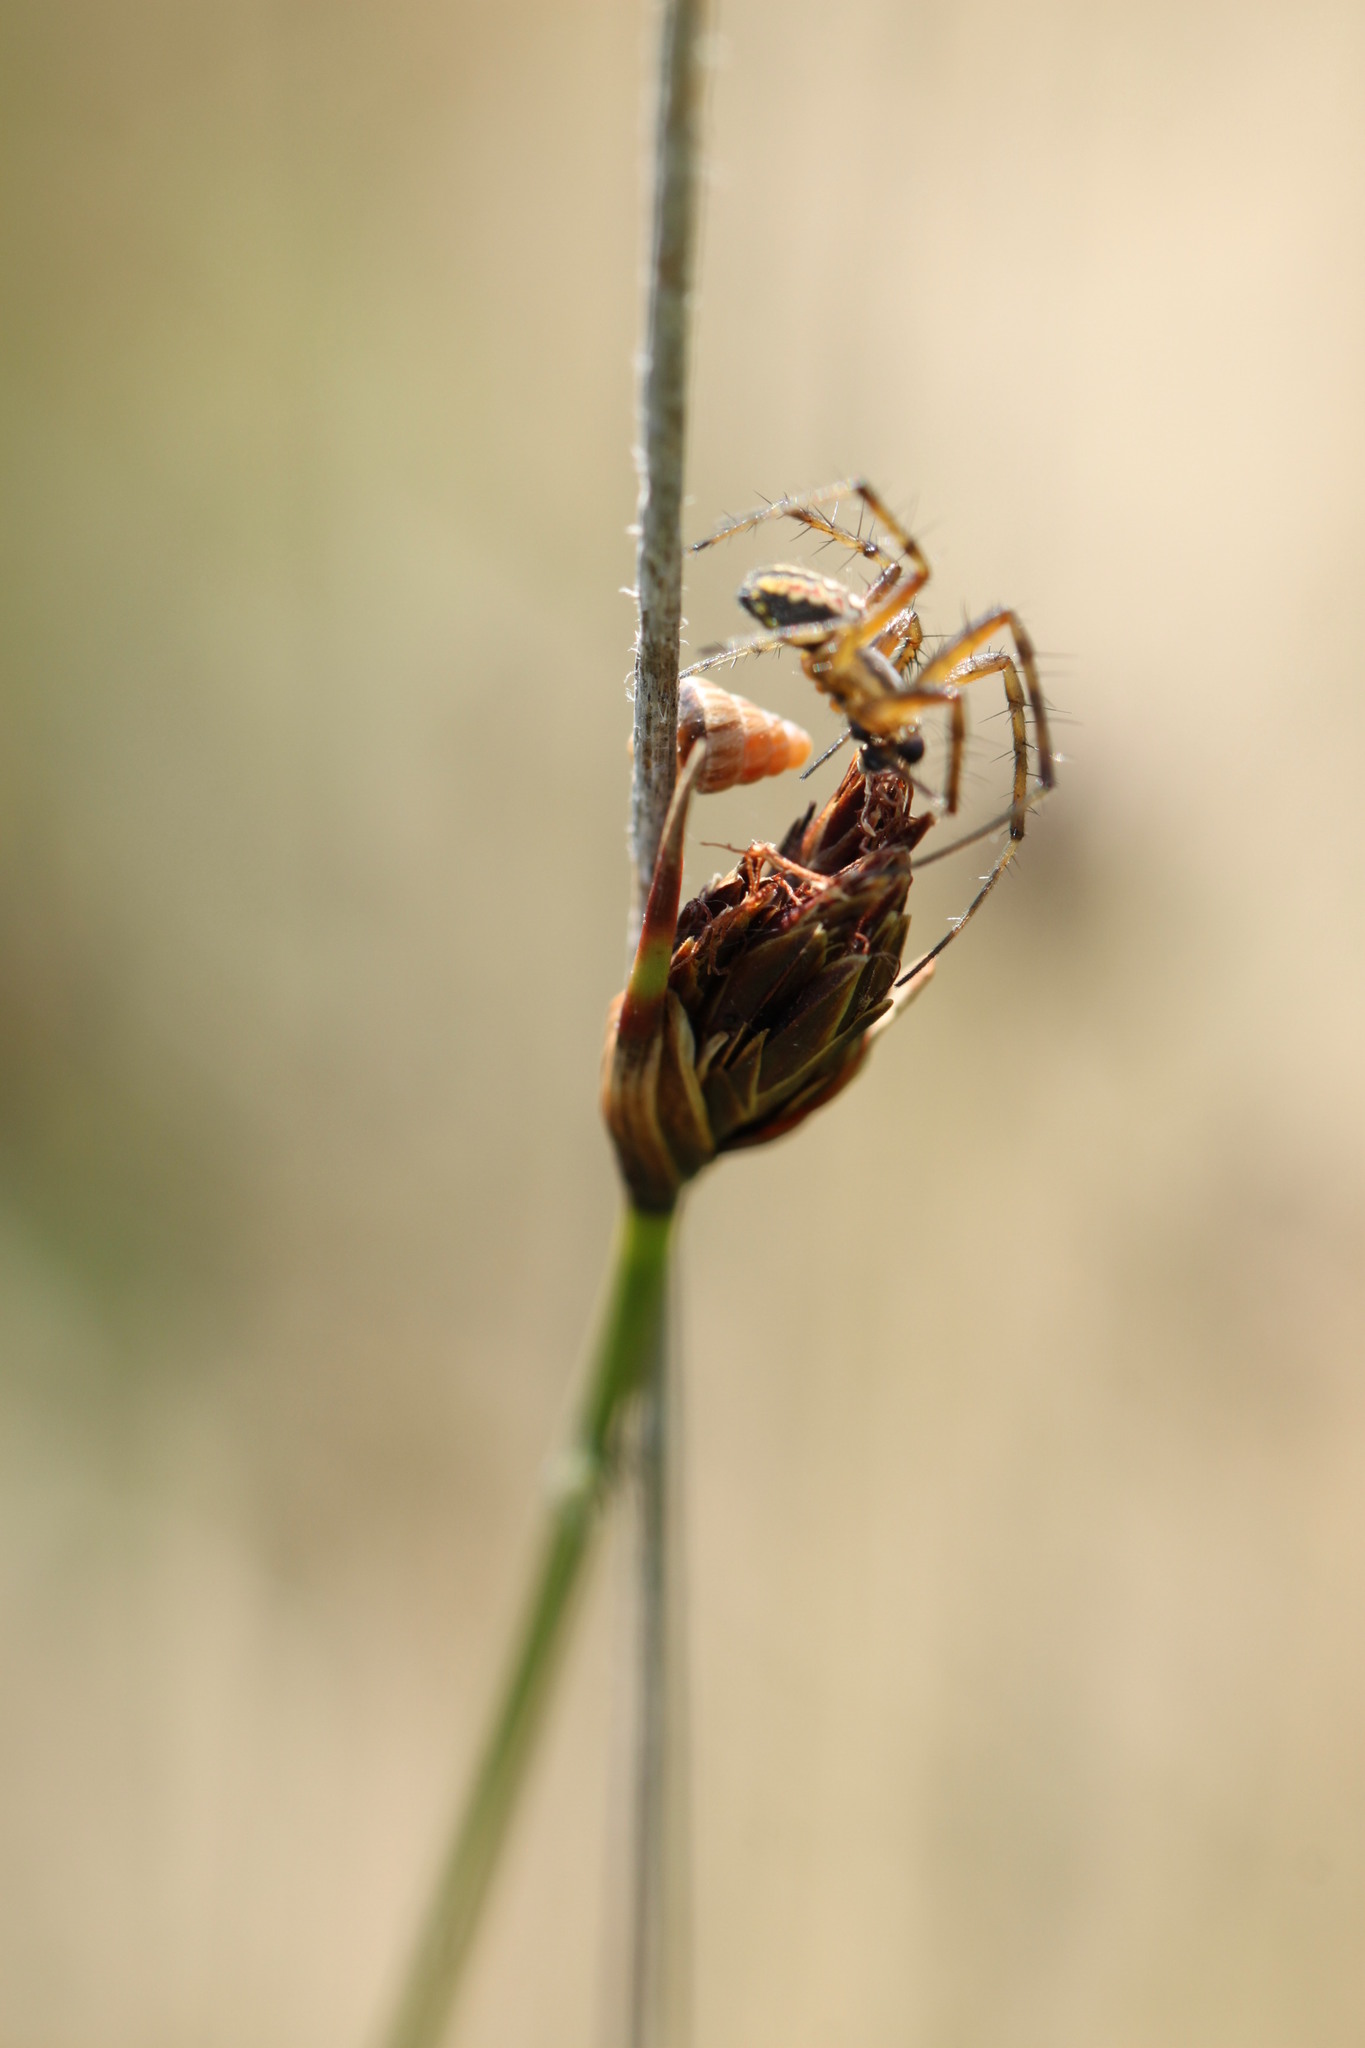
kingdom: Plantae
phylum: Tracheophyta
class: Liliopsida
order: Poales
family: Cyperaceae
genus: Schoenus
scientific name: Schoenus nigricans
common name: Black bog-rush
